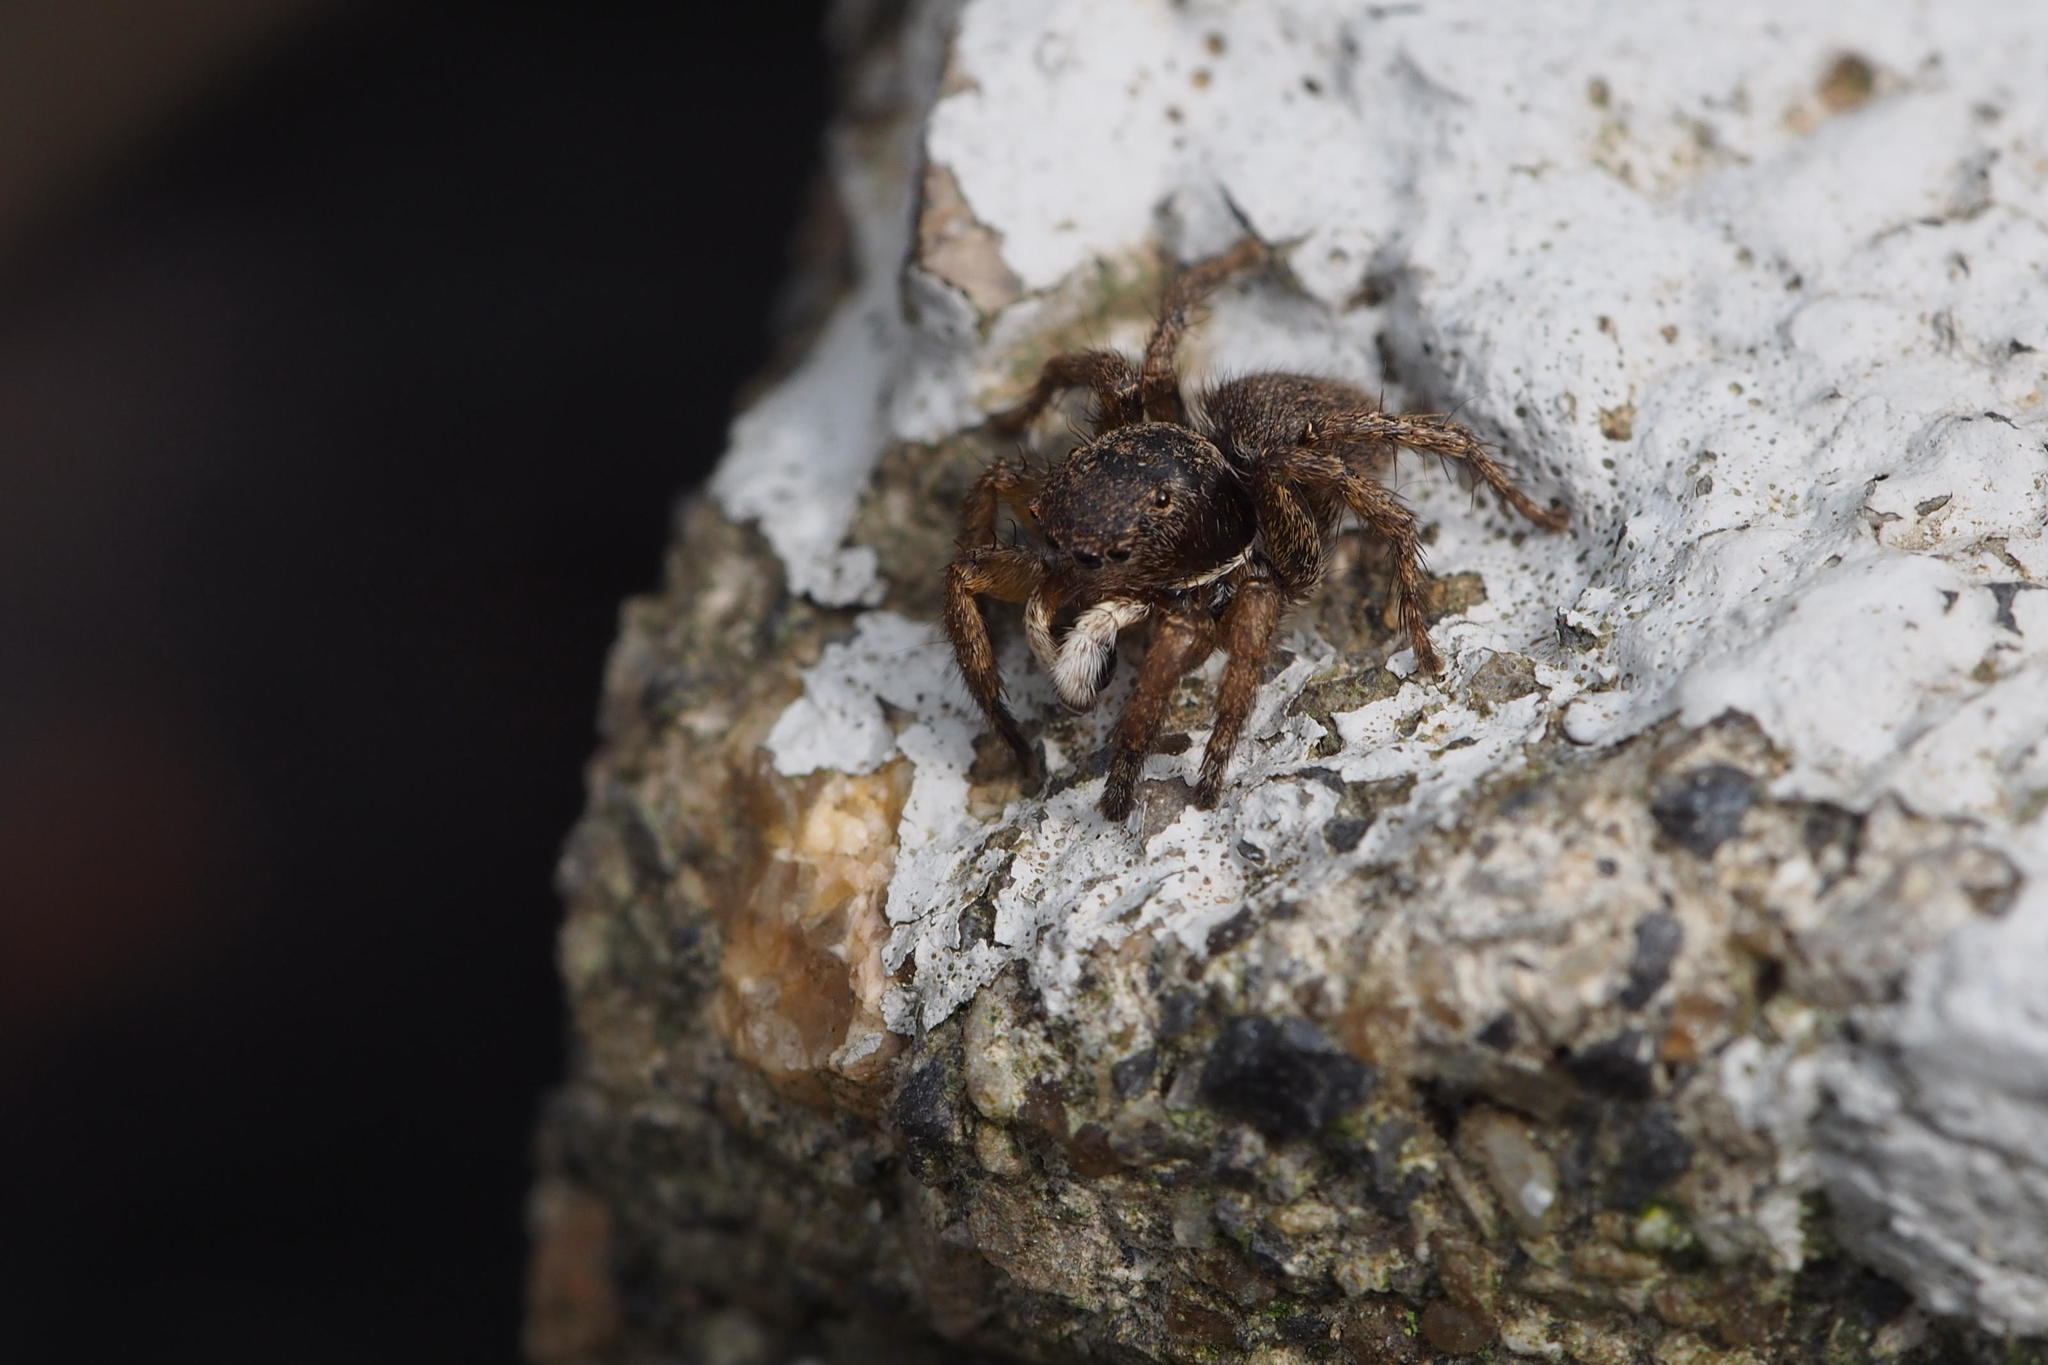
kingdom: Animalia
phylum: Arthropoda
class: Arachnida
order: Araneae
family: Salticidae
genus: Asianellus
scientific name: Asianellus festivus
